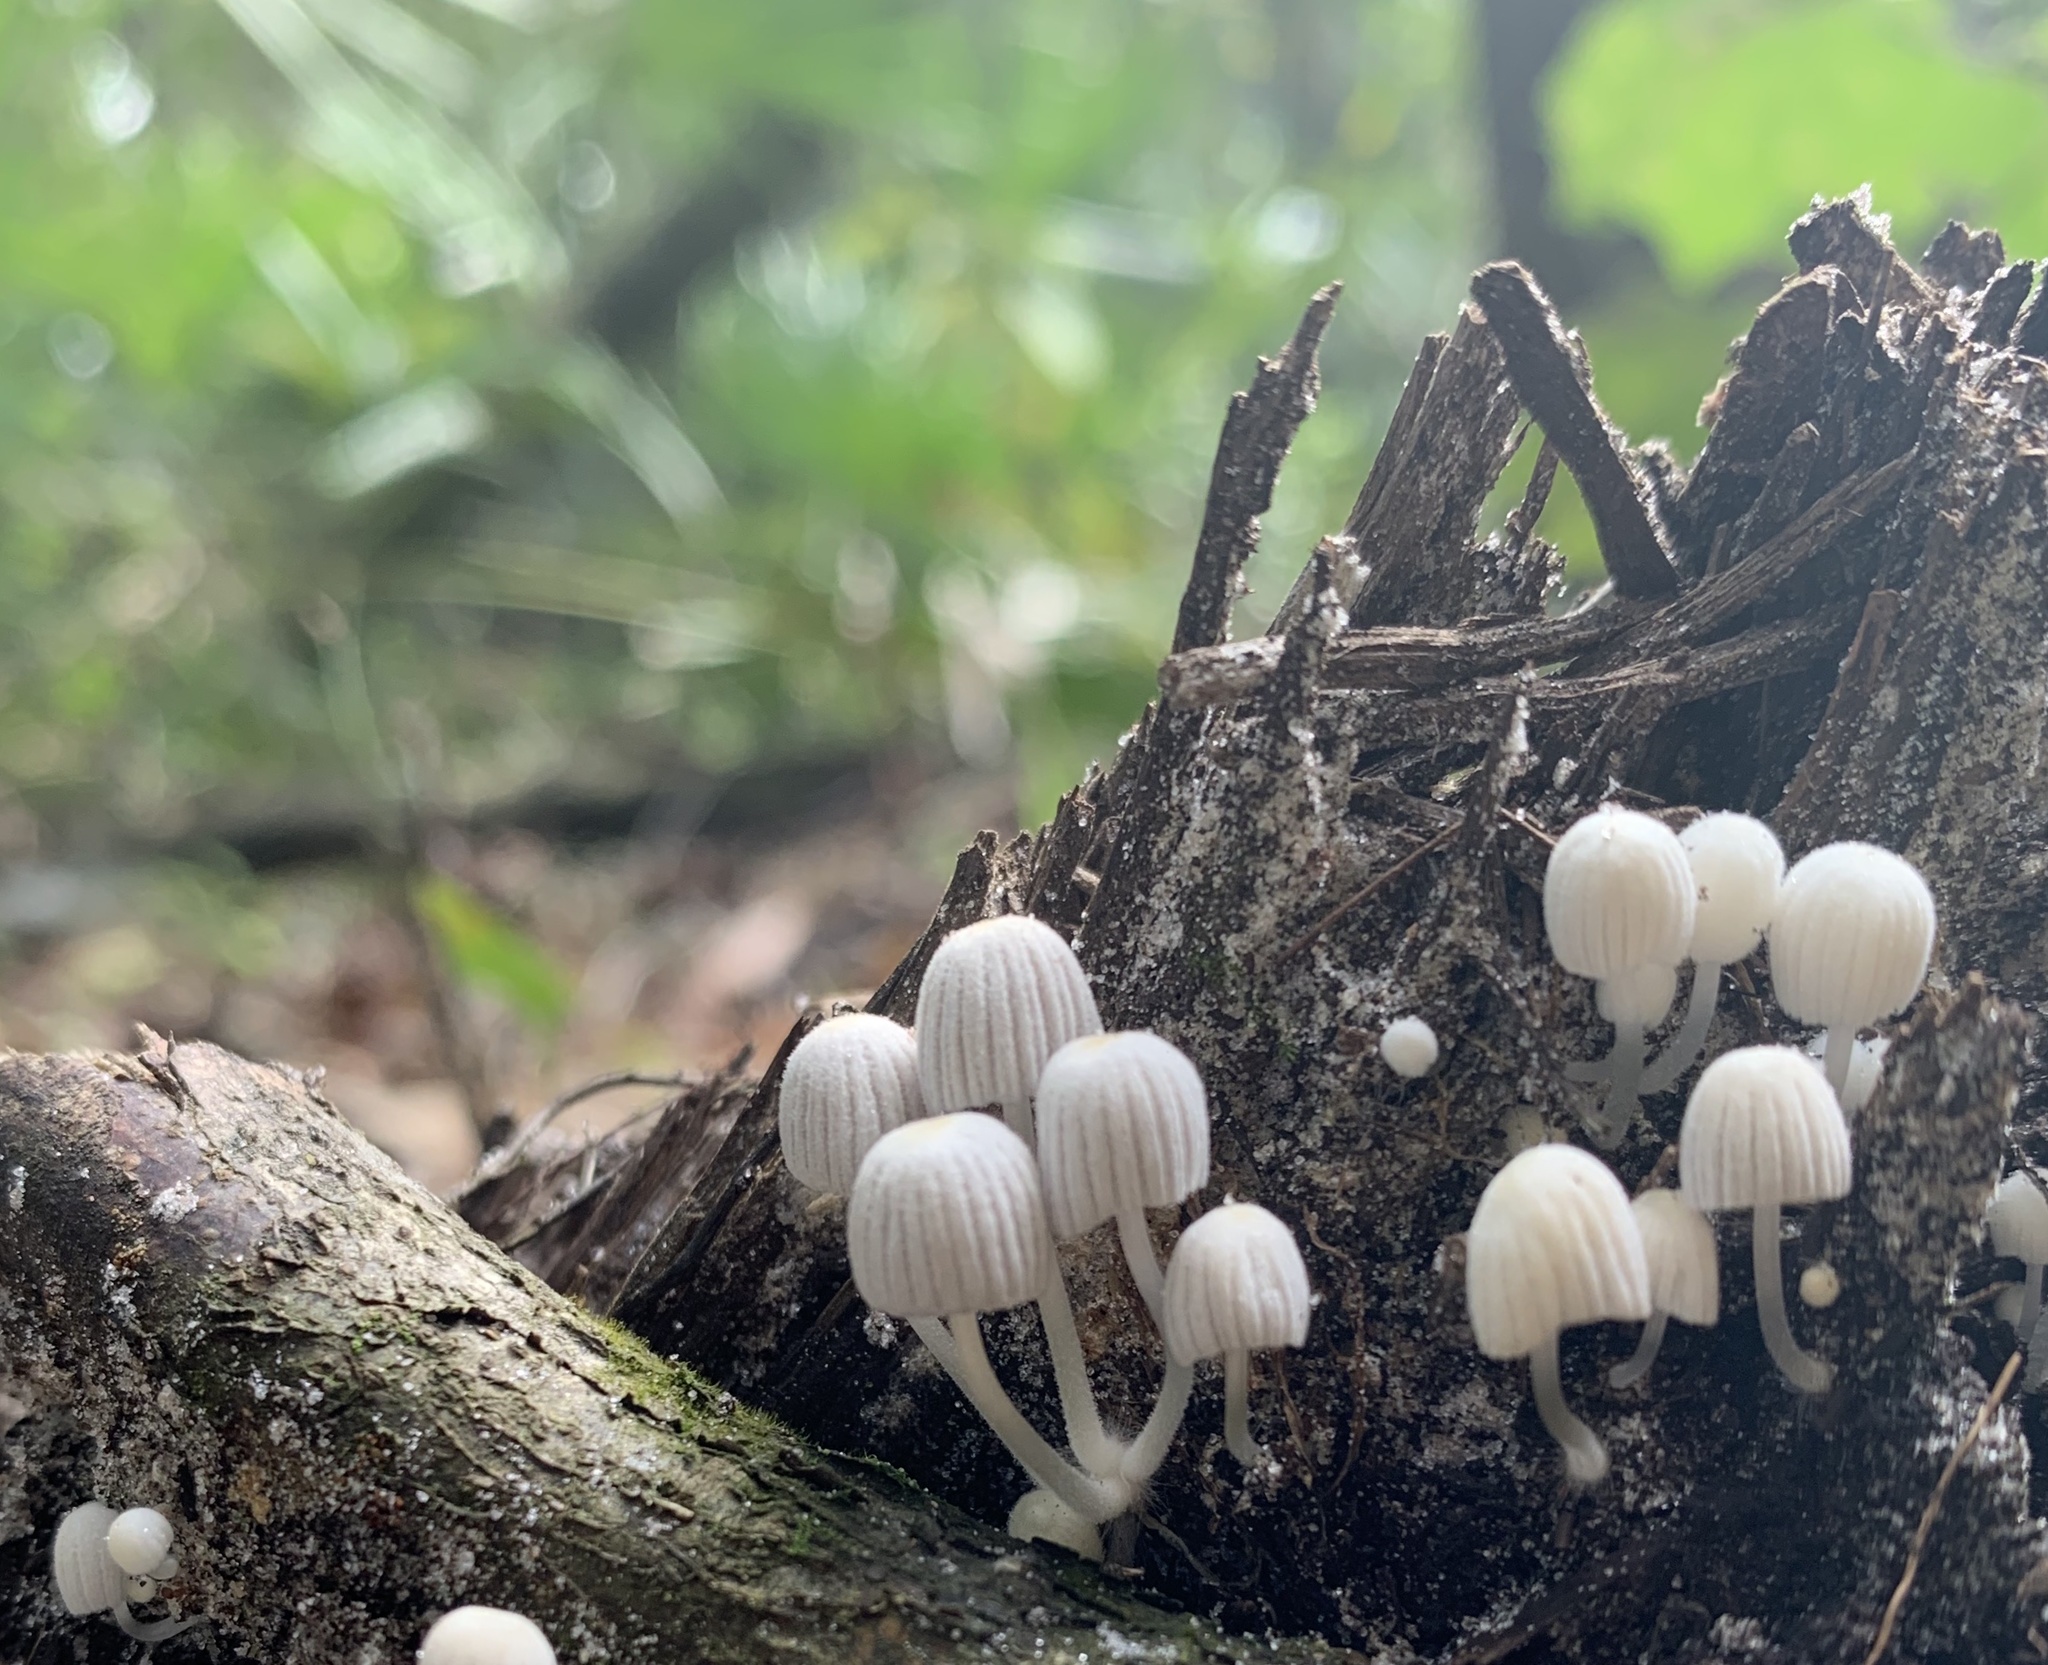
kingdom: Fungi
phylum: Basidiomycota
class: Agaricomycetes
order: Agaricales
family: Psathyrellaceae
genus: Coprinellus
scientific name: Coprinellus disseminatus
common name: Fairies' bonnets
